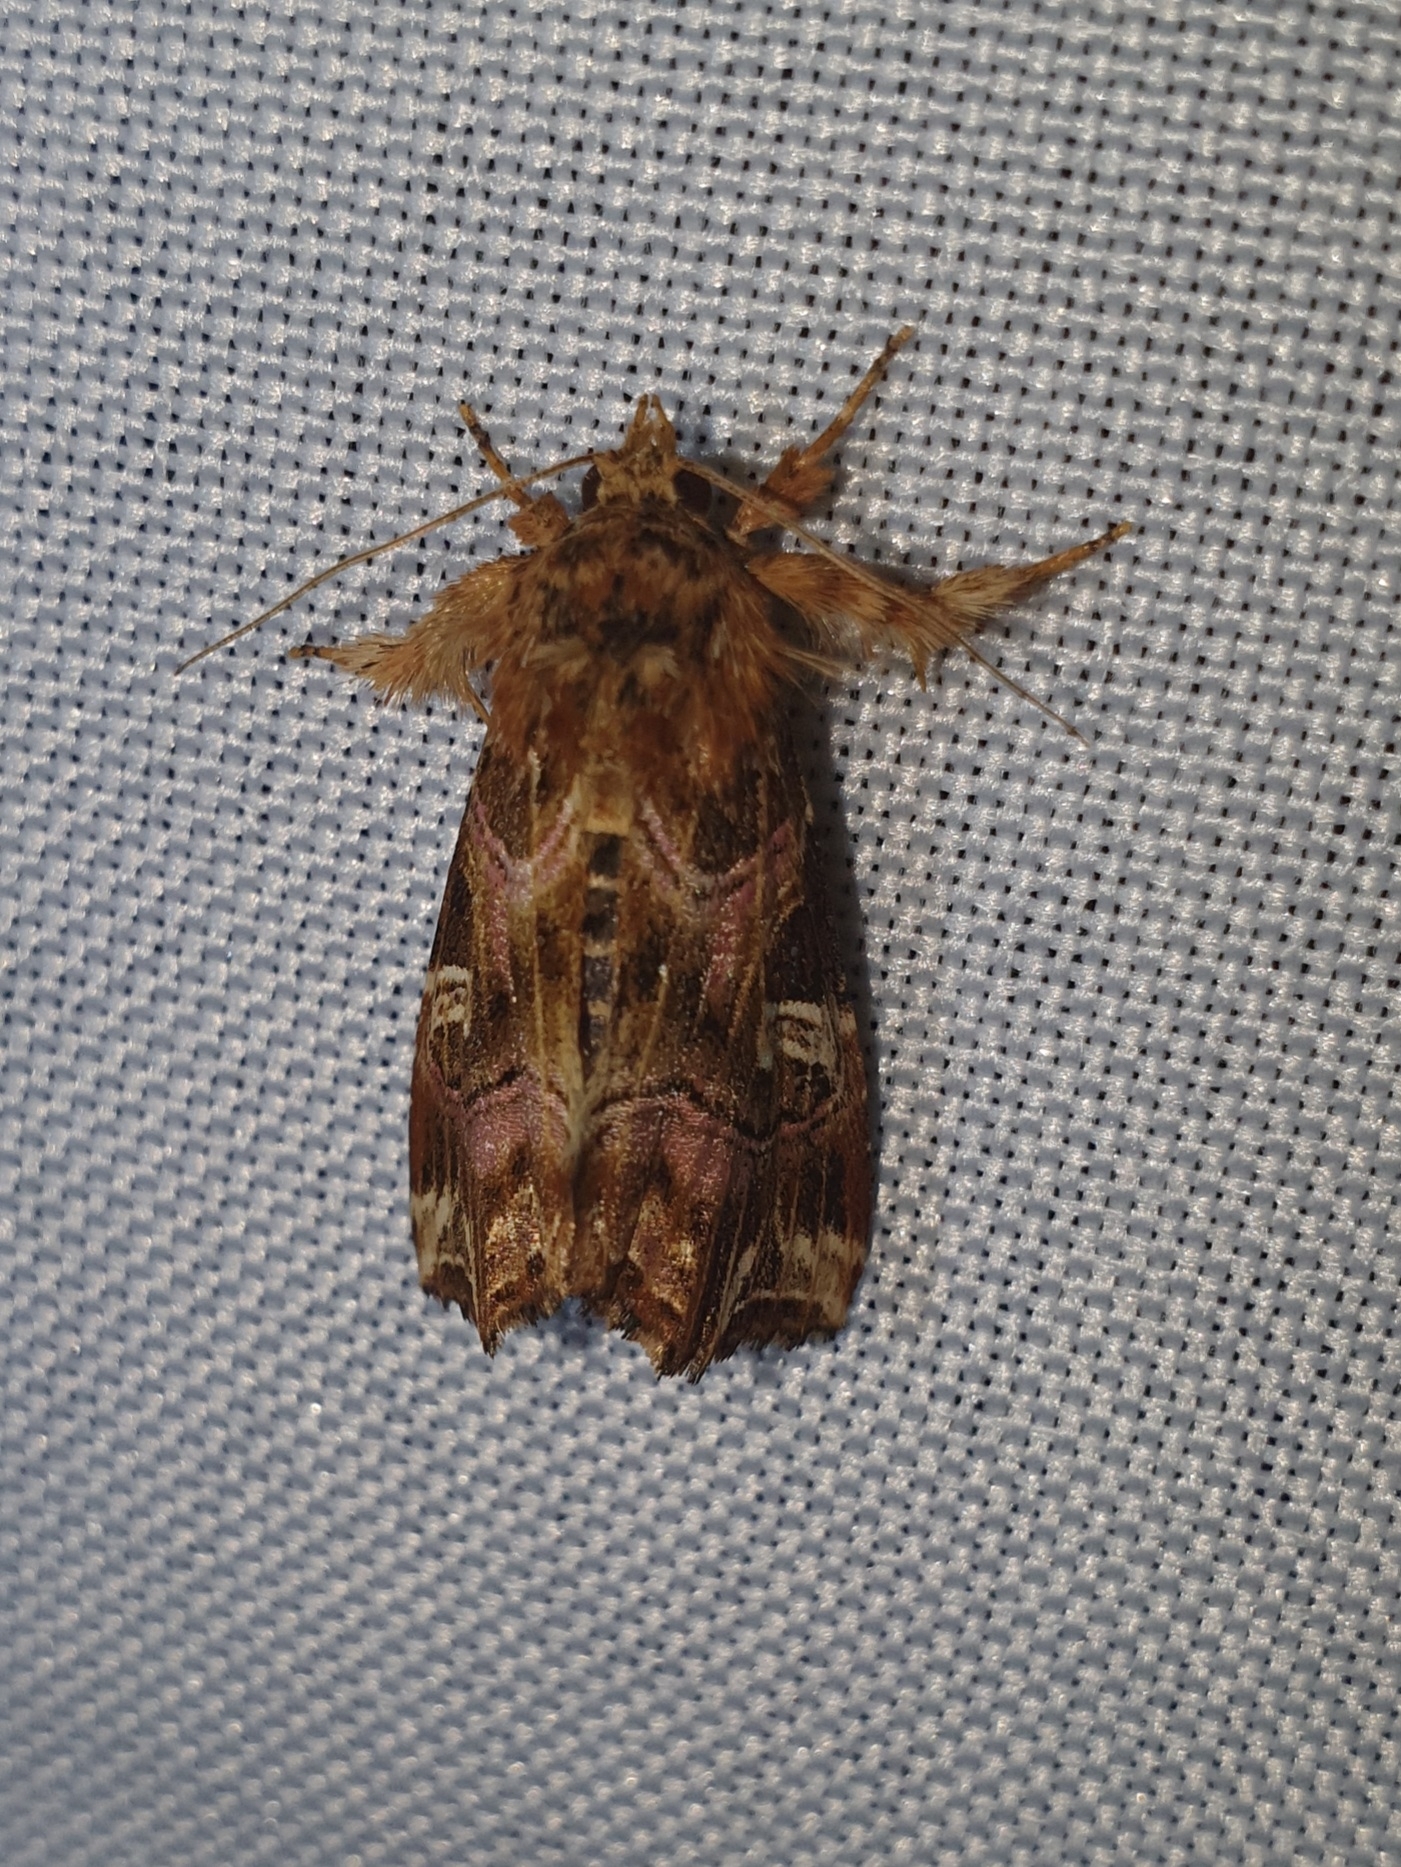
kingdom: Animalia
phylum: Arthropoda
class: Insecta
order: Lepidoptera
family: Noctuidae
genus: Callopistria
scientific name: Callopistria juventina
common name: Latin
